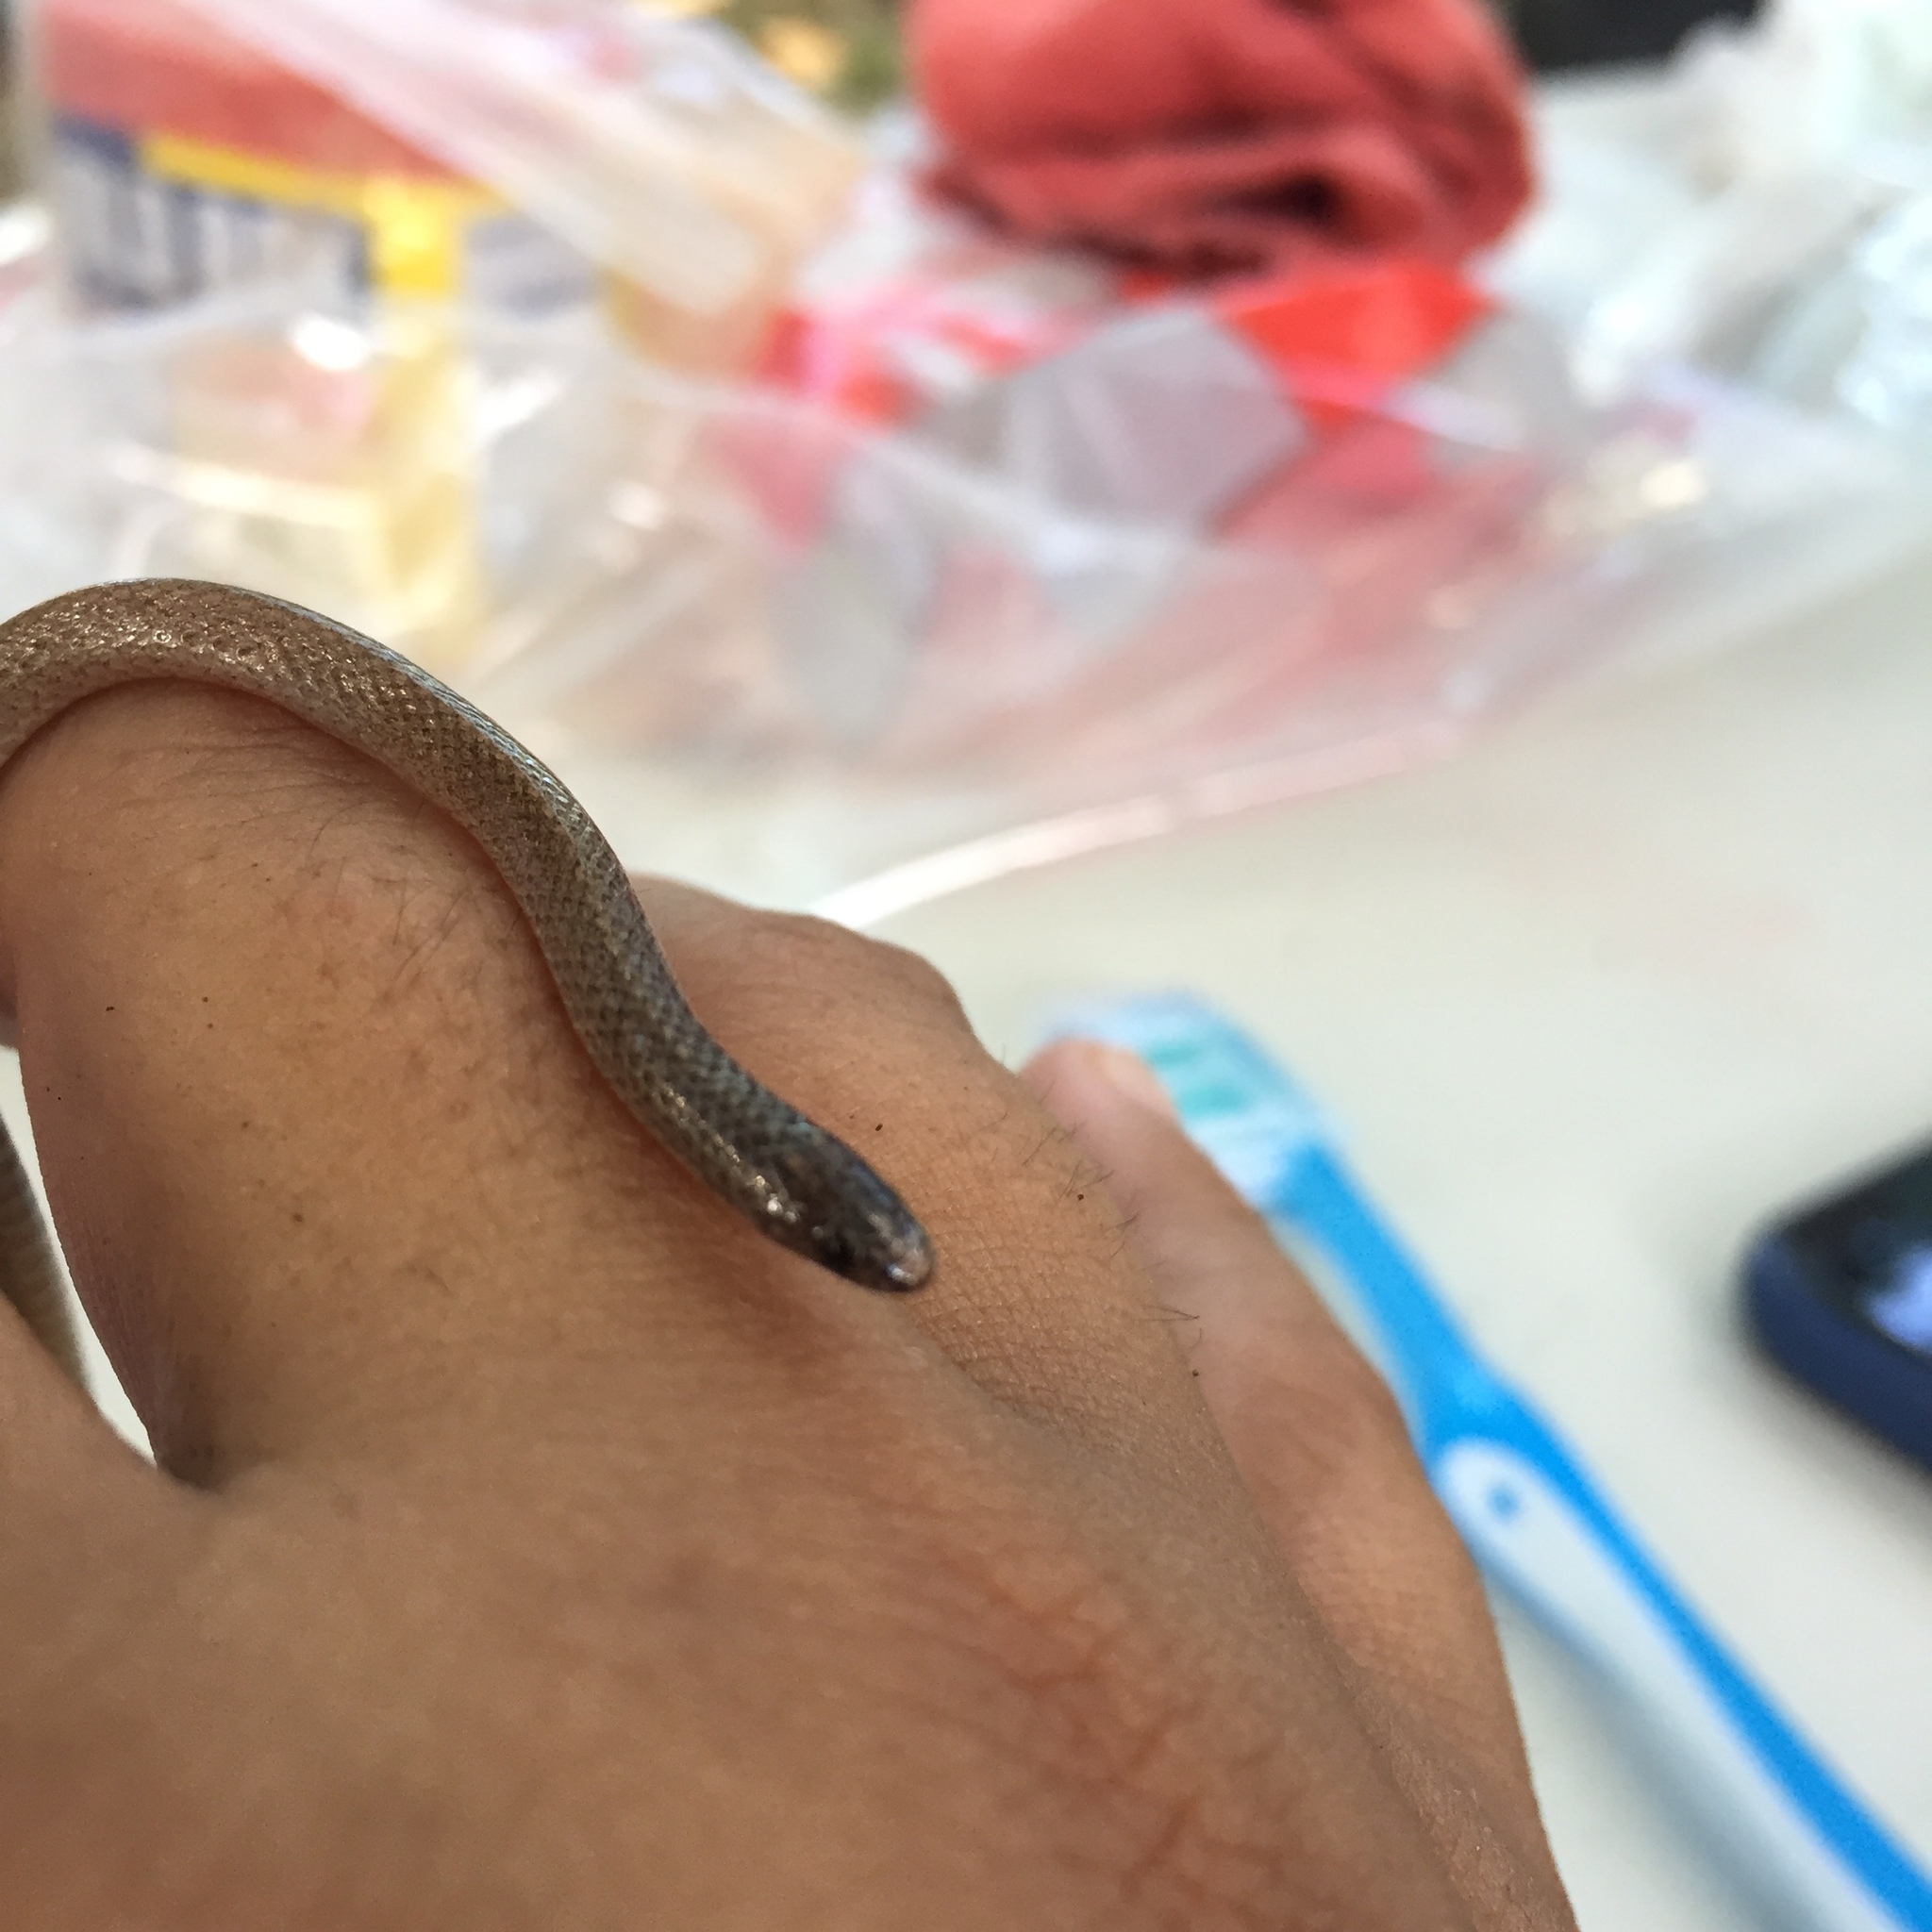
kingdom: Animalia
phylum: Chordata
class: Squamata
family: Colubridae
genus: Tantillita
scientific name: Tantillita canula
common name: Yucatecan dwarf short-tail snake
